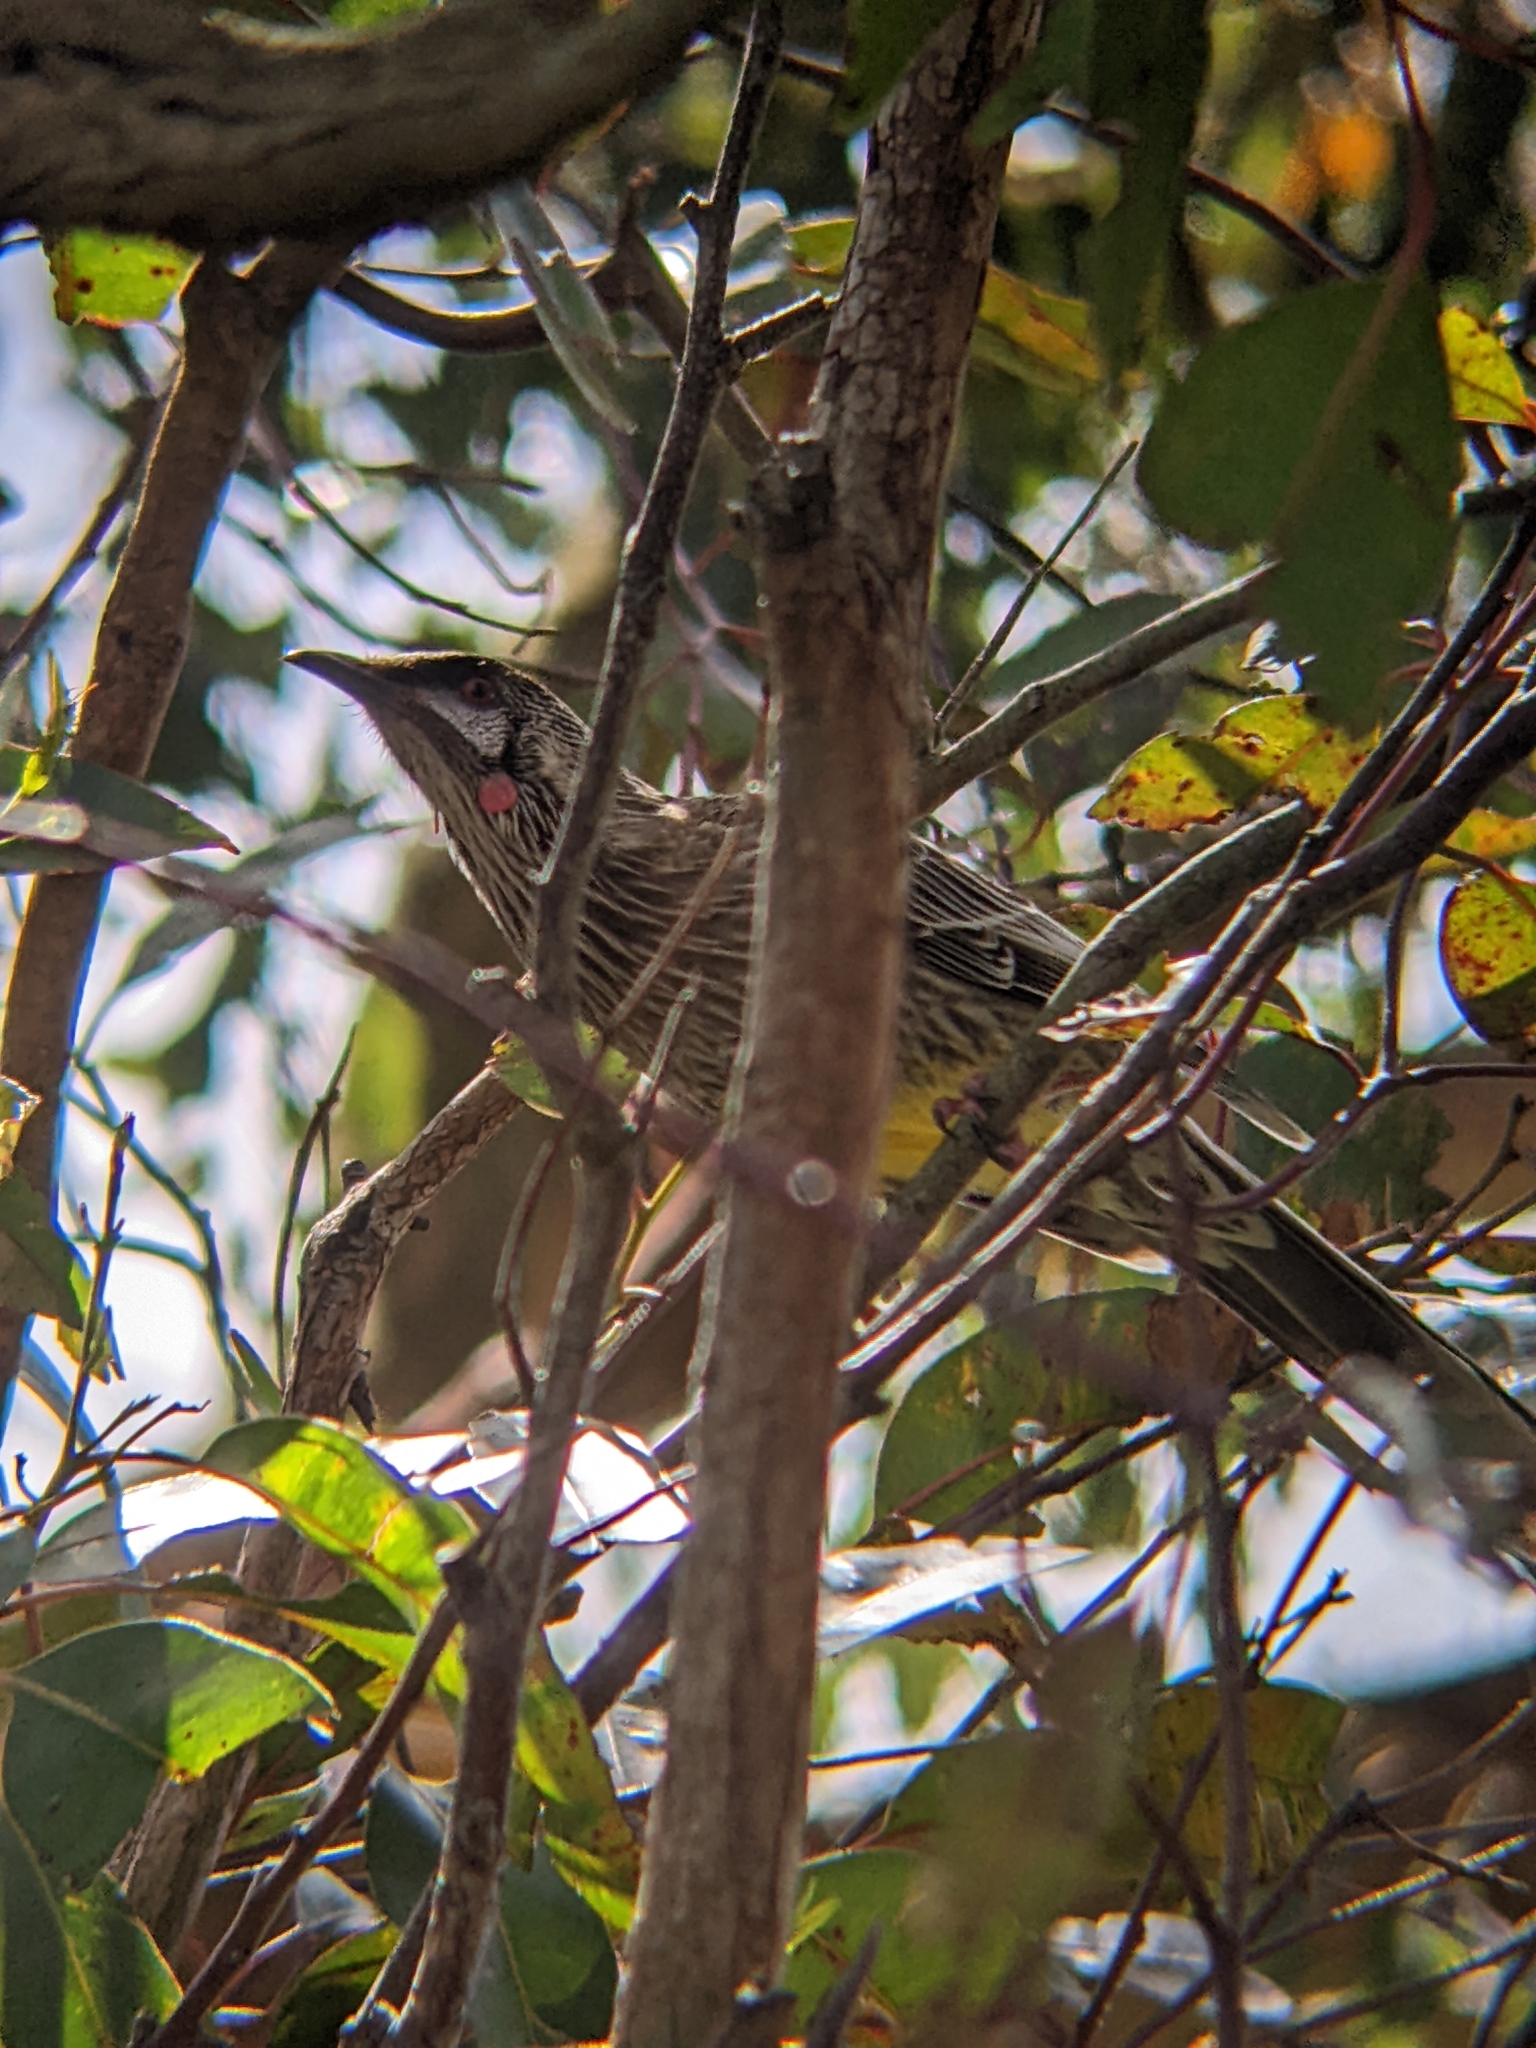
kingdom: Animalia
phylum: Chordata
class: Aves
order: Passeriformes
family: Meliphagidae
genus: Anthochaera
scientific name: Anthochaera carunculata
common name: Red wattlebird
